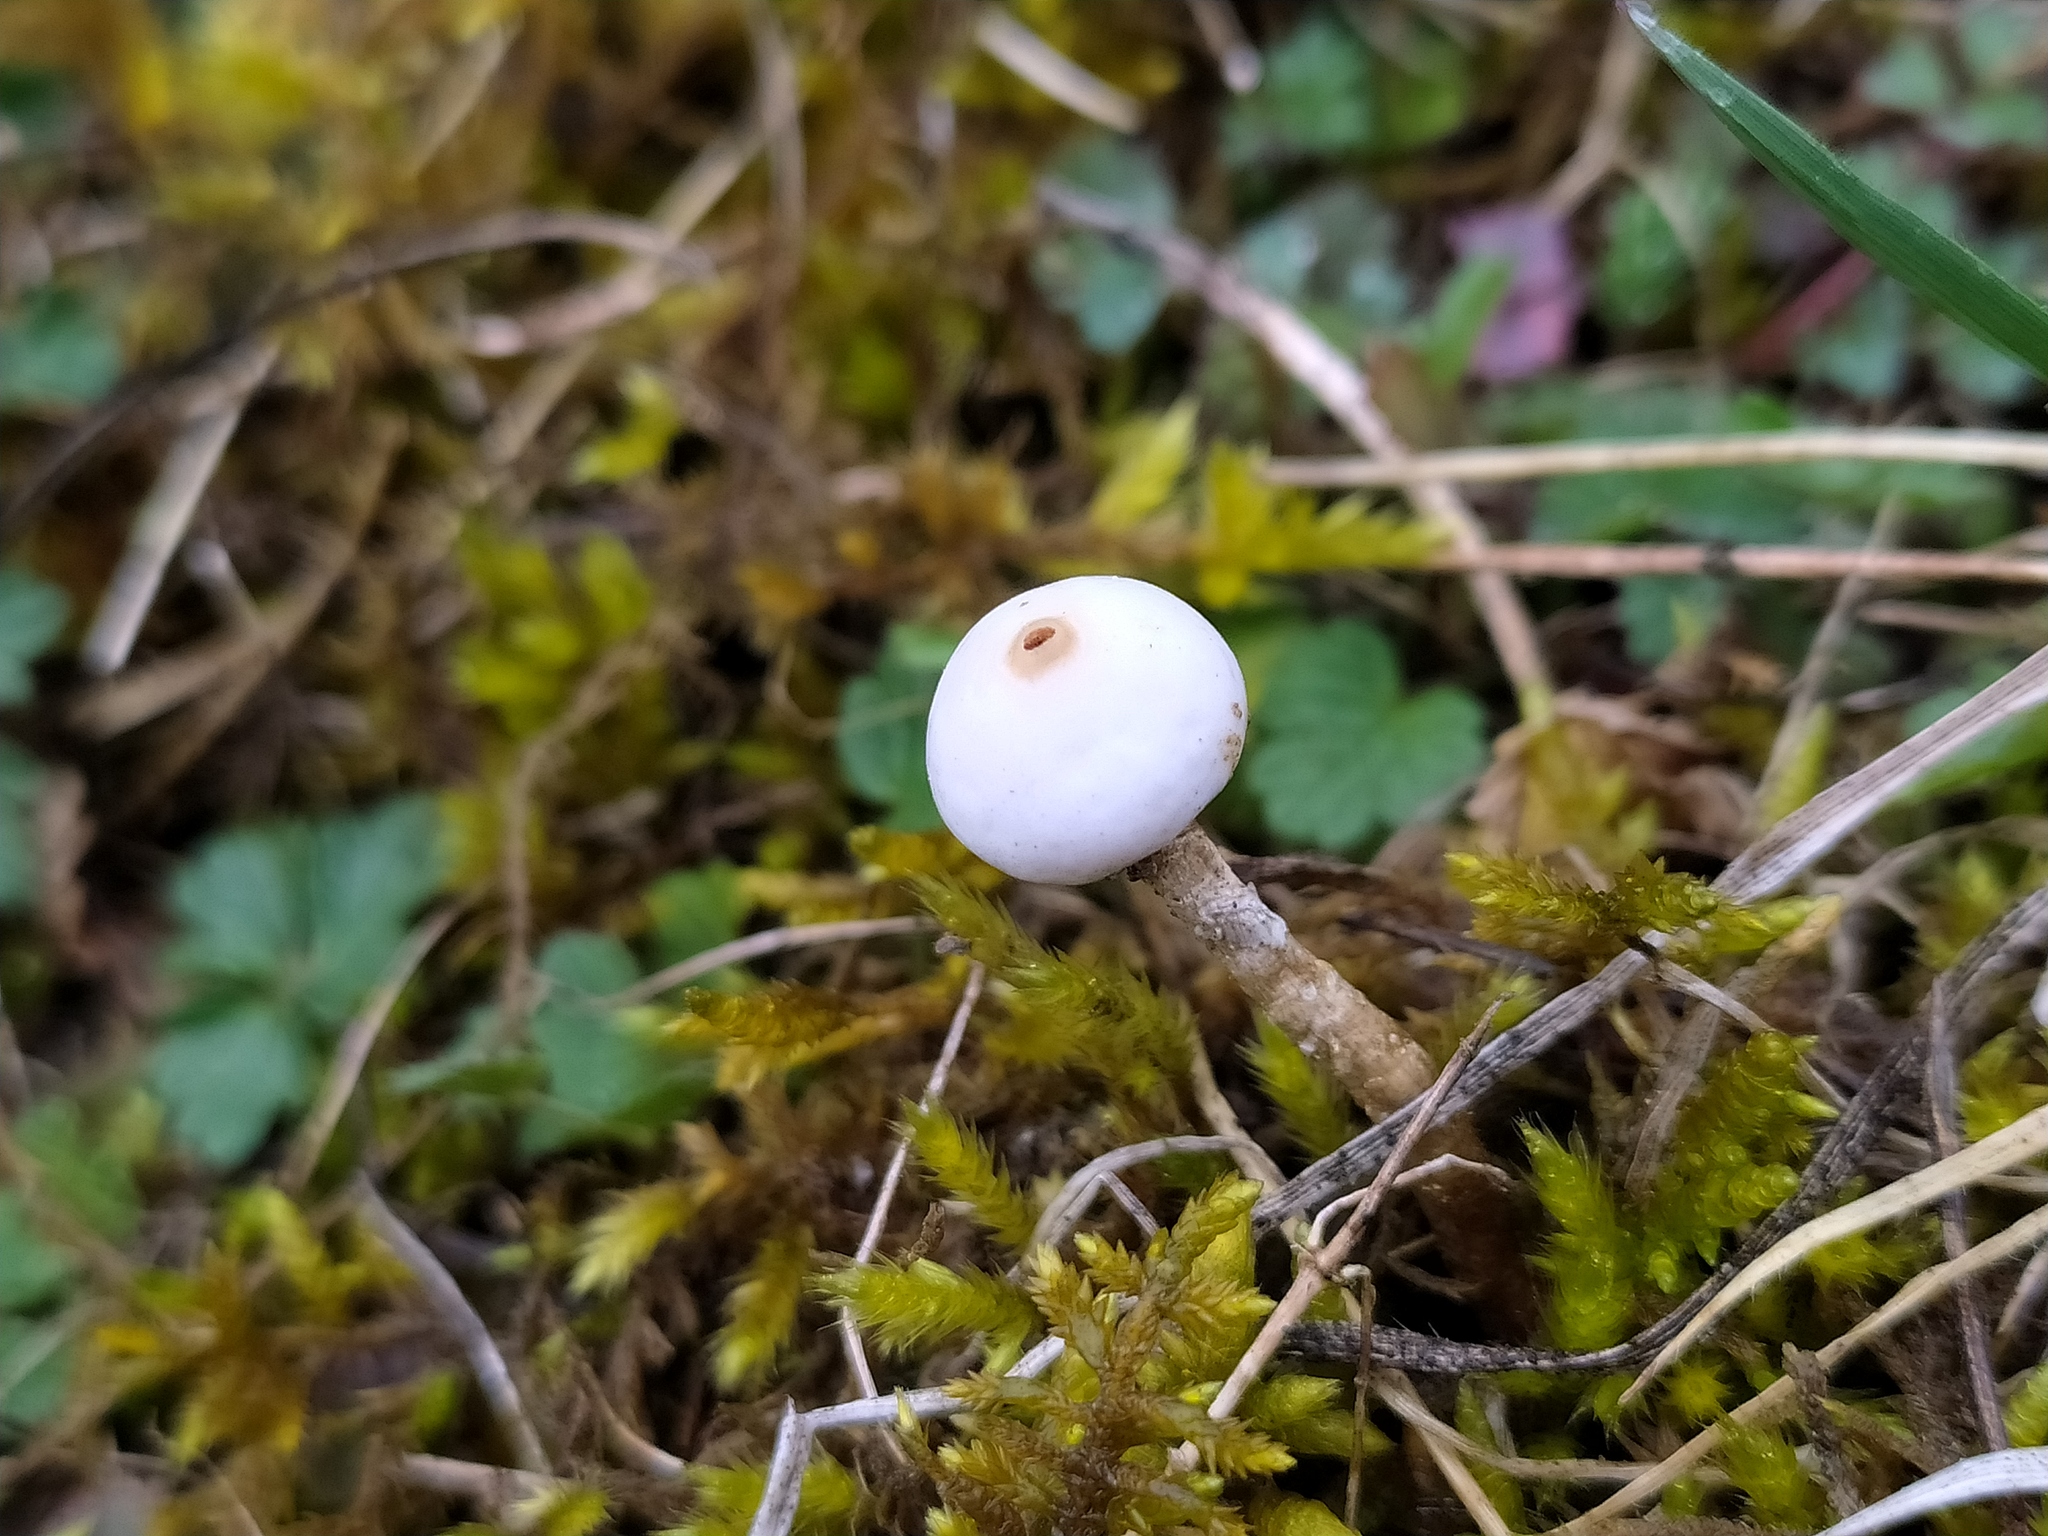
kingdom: Fungi
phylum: Basidiomycota
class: Agaricomycetes
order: Agaricales
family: Agaricaceae
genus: Tulostoma
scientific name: Tulostoma brumale
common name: Winter stalk puffball
